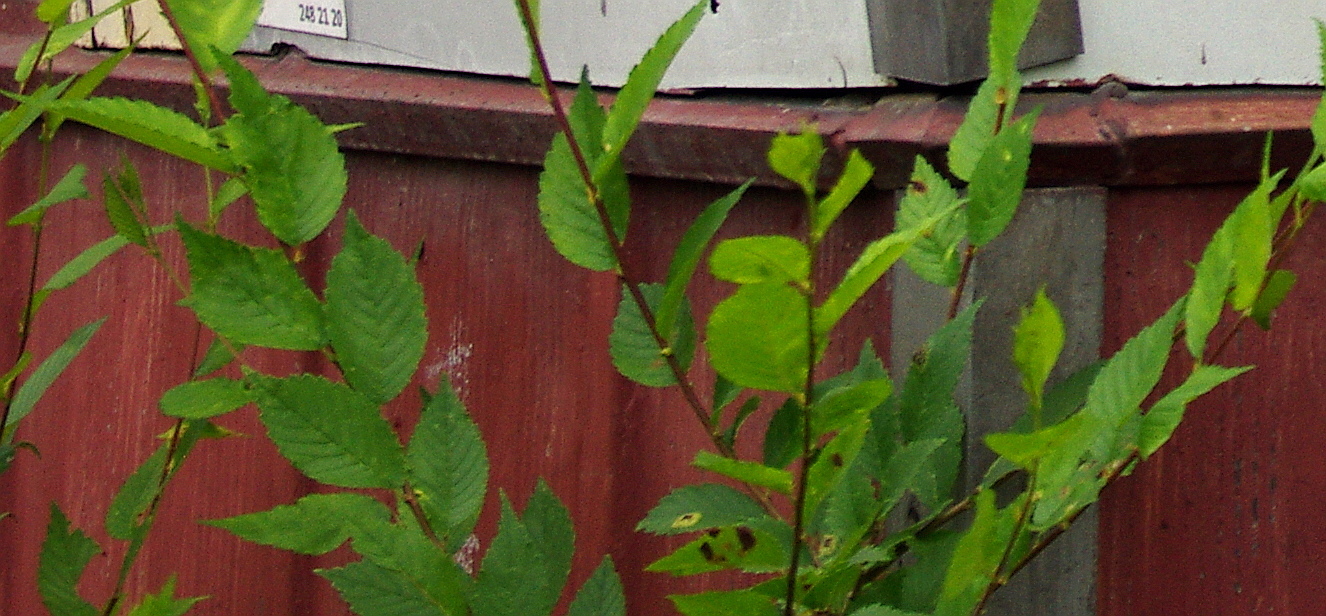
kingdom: Plantae
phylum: Tracheophyta
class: Magnoliopsida
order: Rosales
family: Ulmaceae
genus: Ulmus
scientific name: Ulmus pumila
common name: Siberian elm
